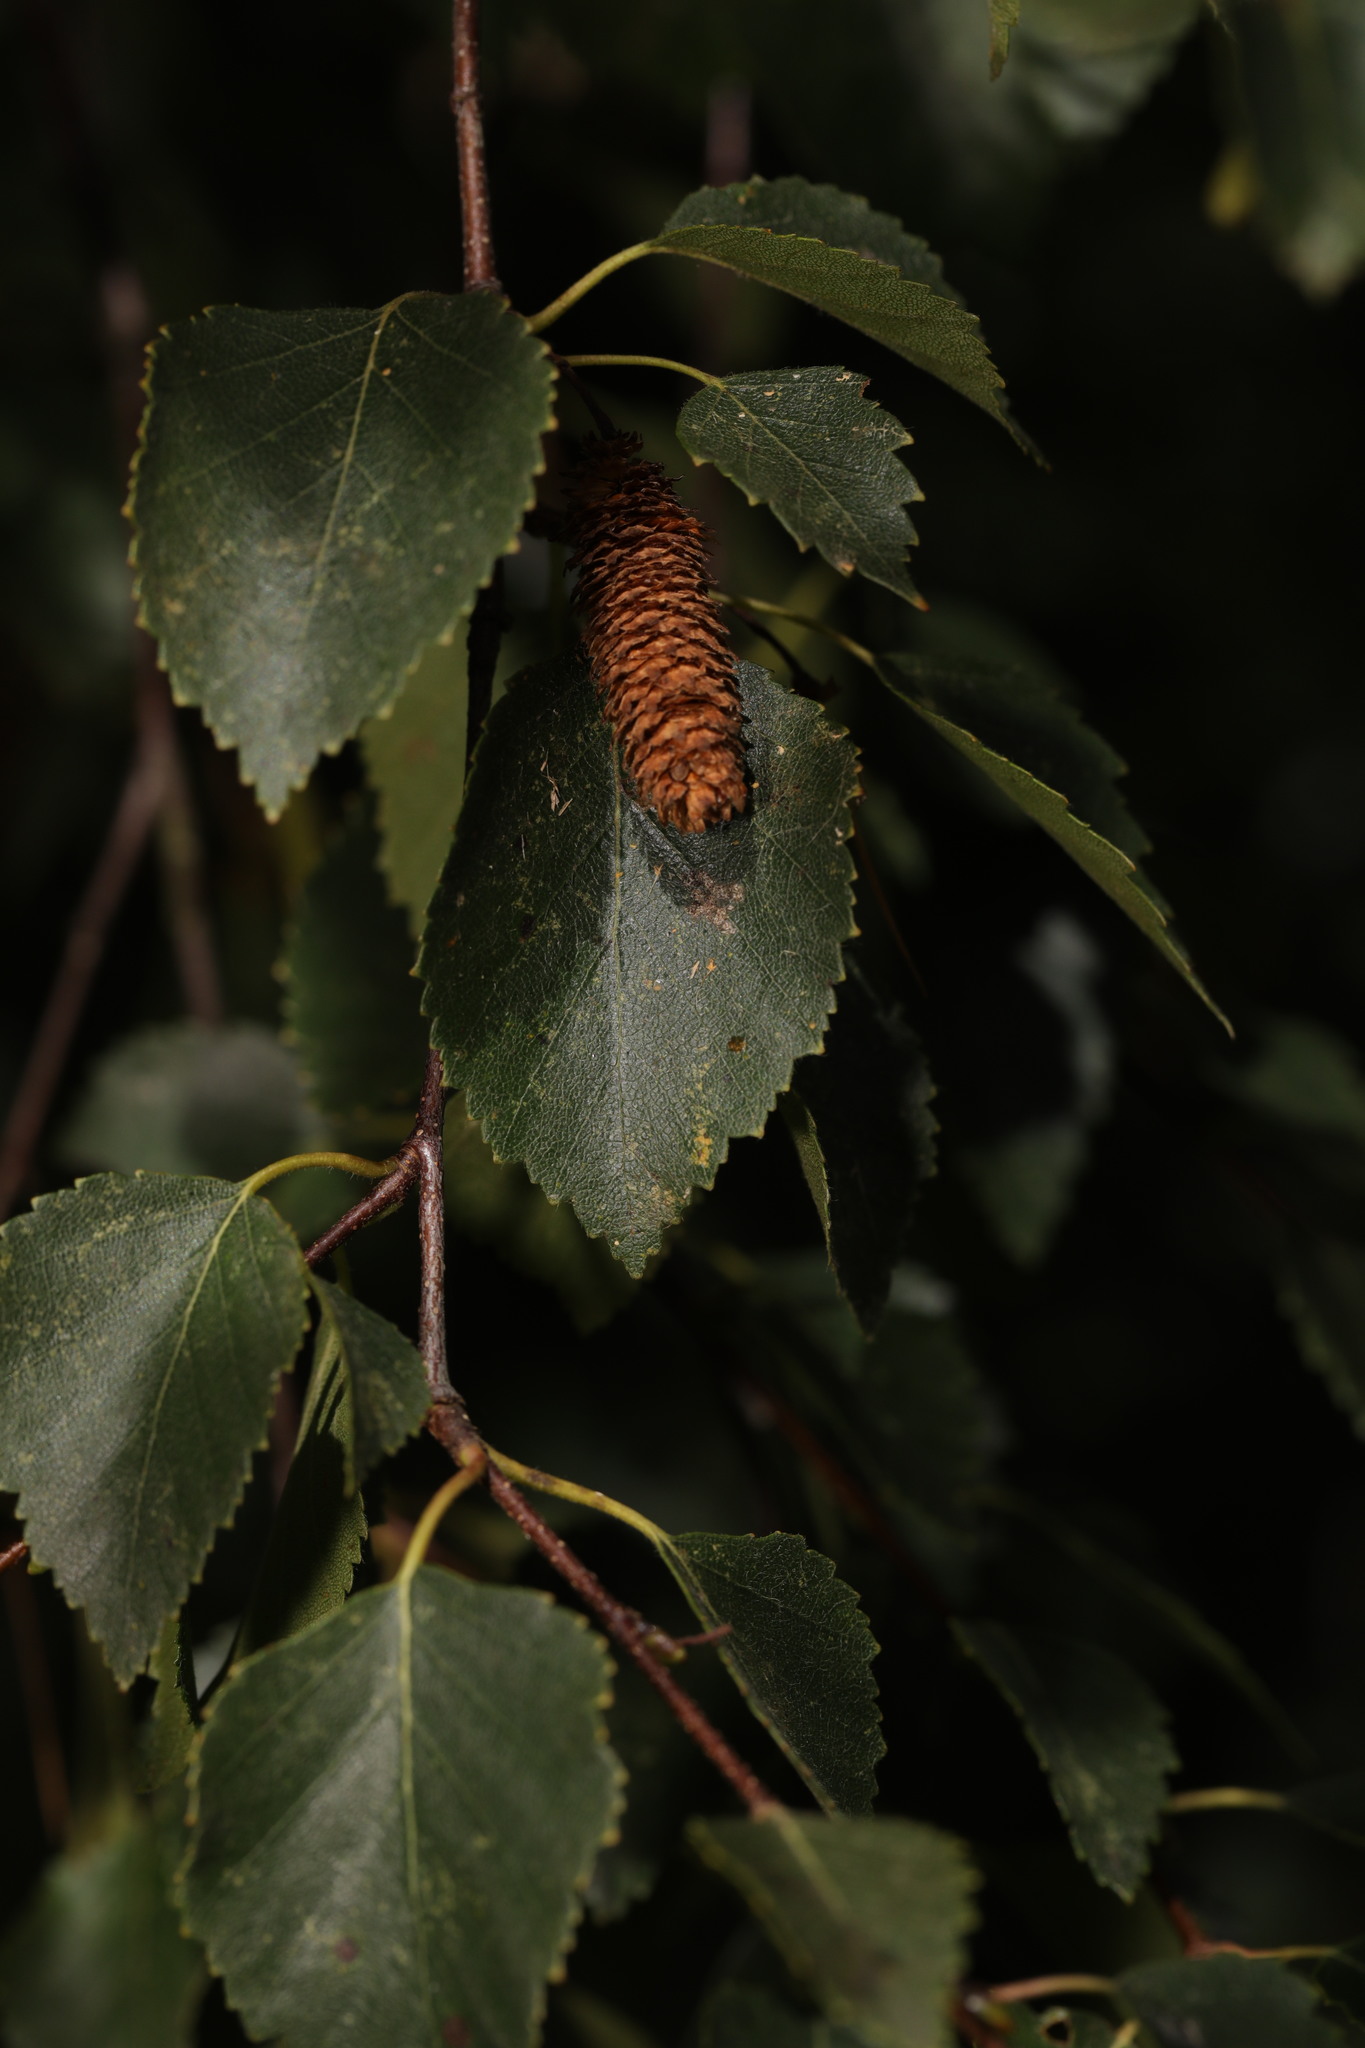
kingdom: Plantae
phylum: Tracheophyta
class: Magnoliopsida
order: Fagales
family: Betulaceae
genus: Betula
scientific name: Betula pendula
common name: Silver birch
